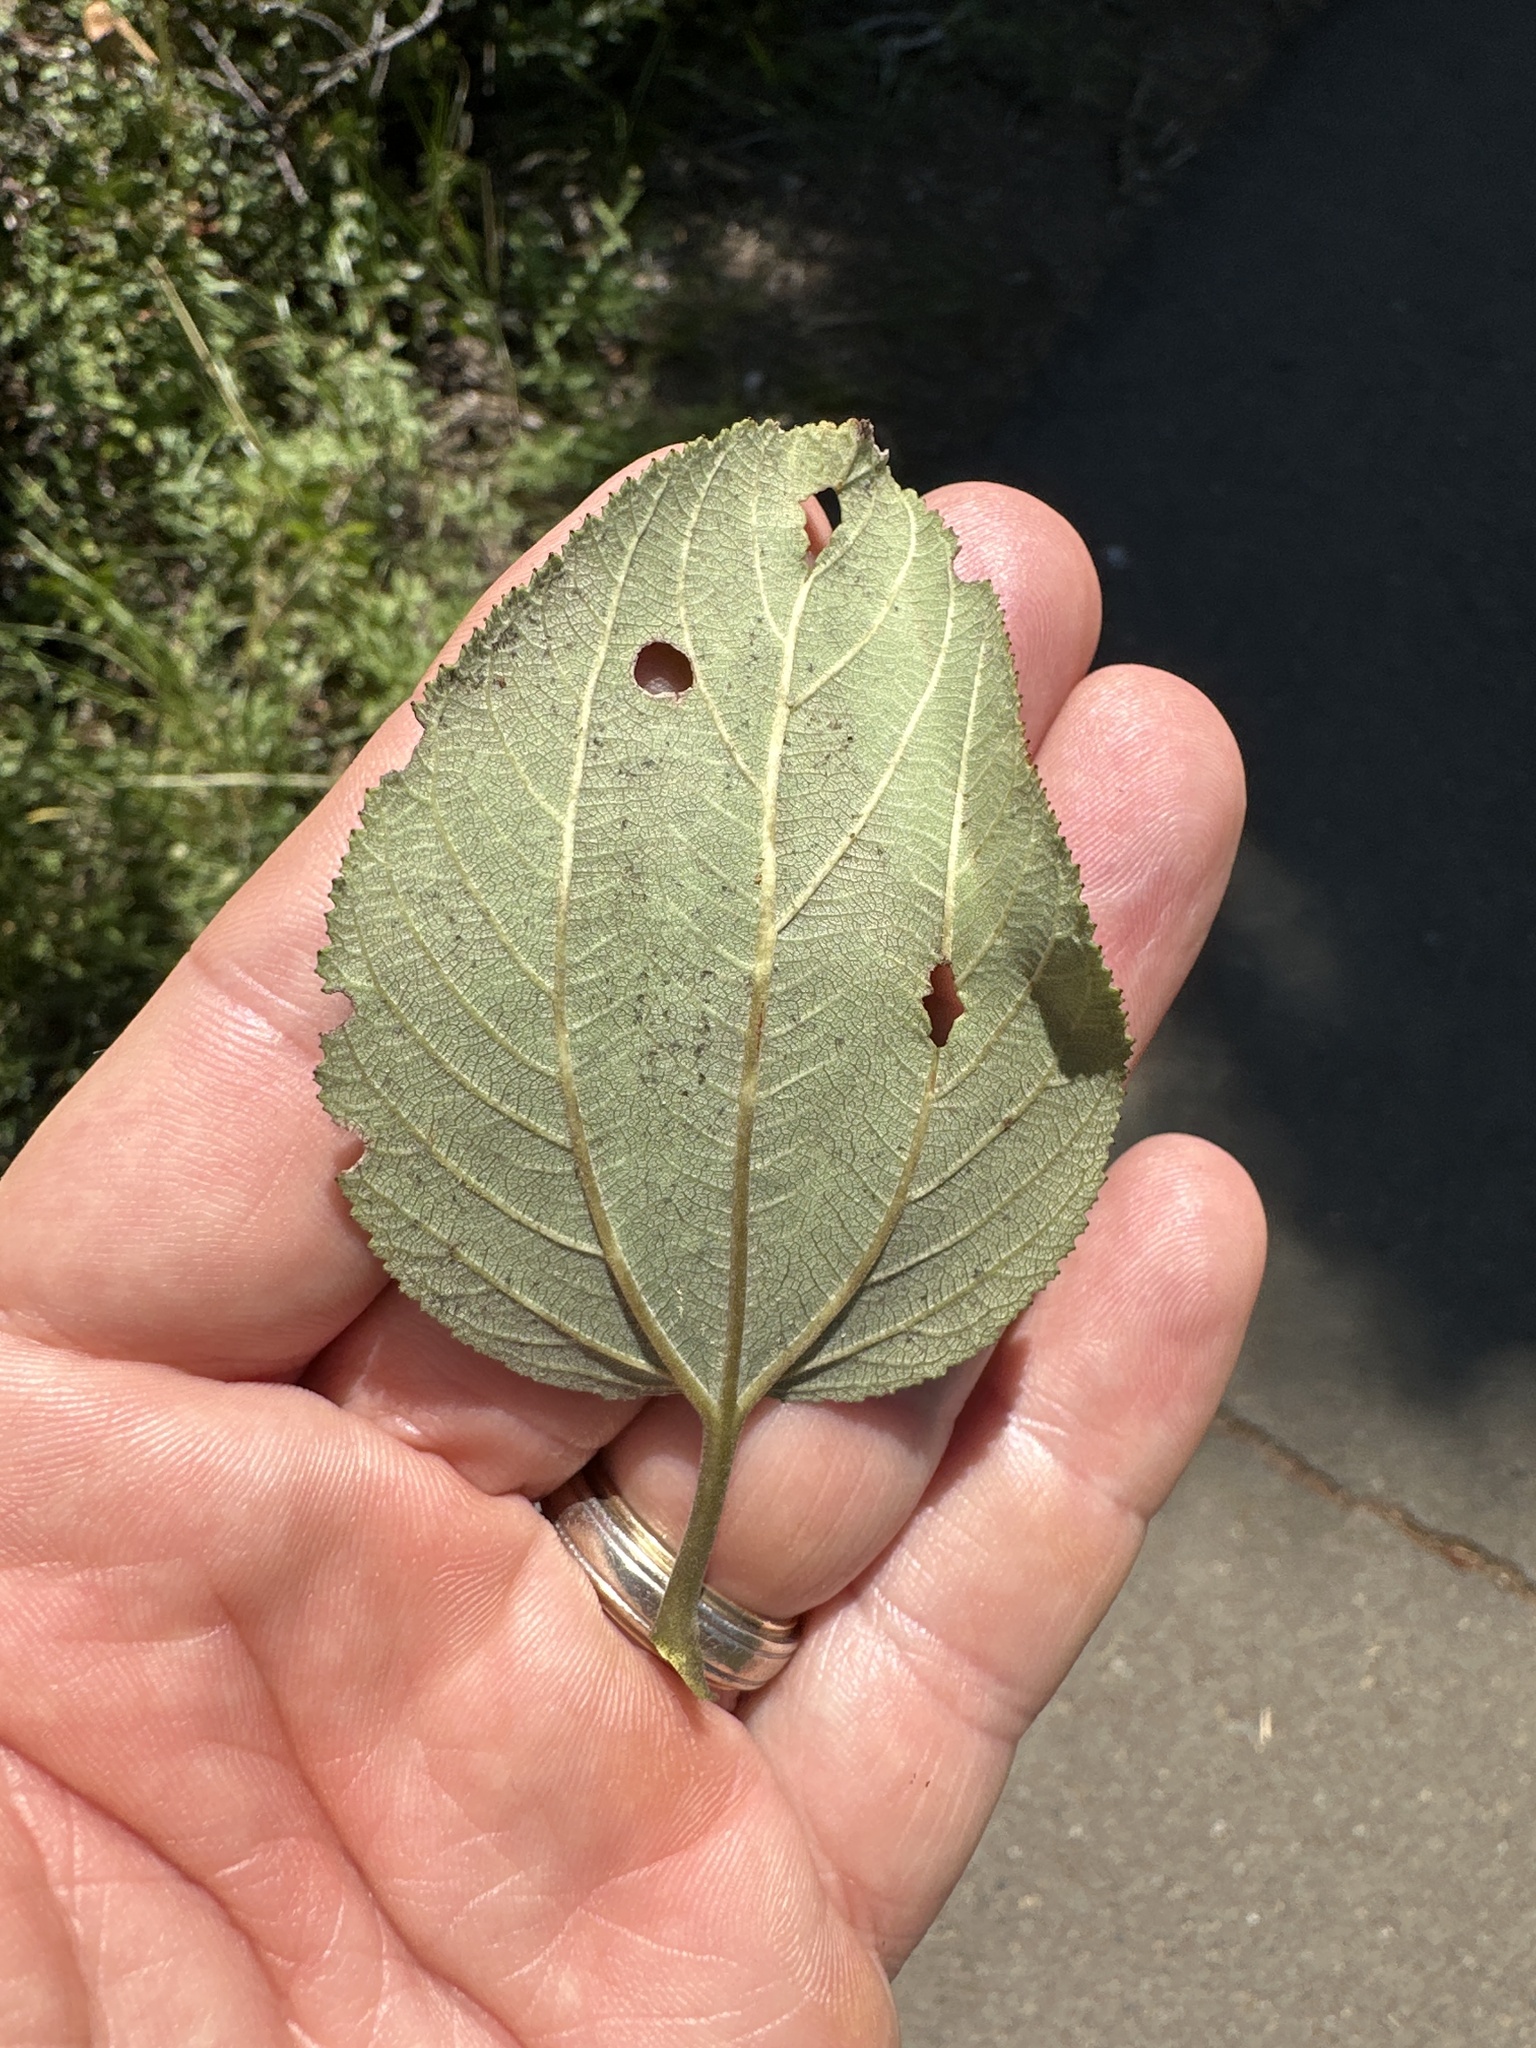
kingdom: Plantae
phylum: Tracheophyta
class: Magnoliopsida
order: Rosales
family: Rhamnaceae
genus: Ceanothus
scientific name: Ceanothus velutinus
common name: Snowbrush
